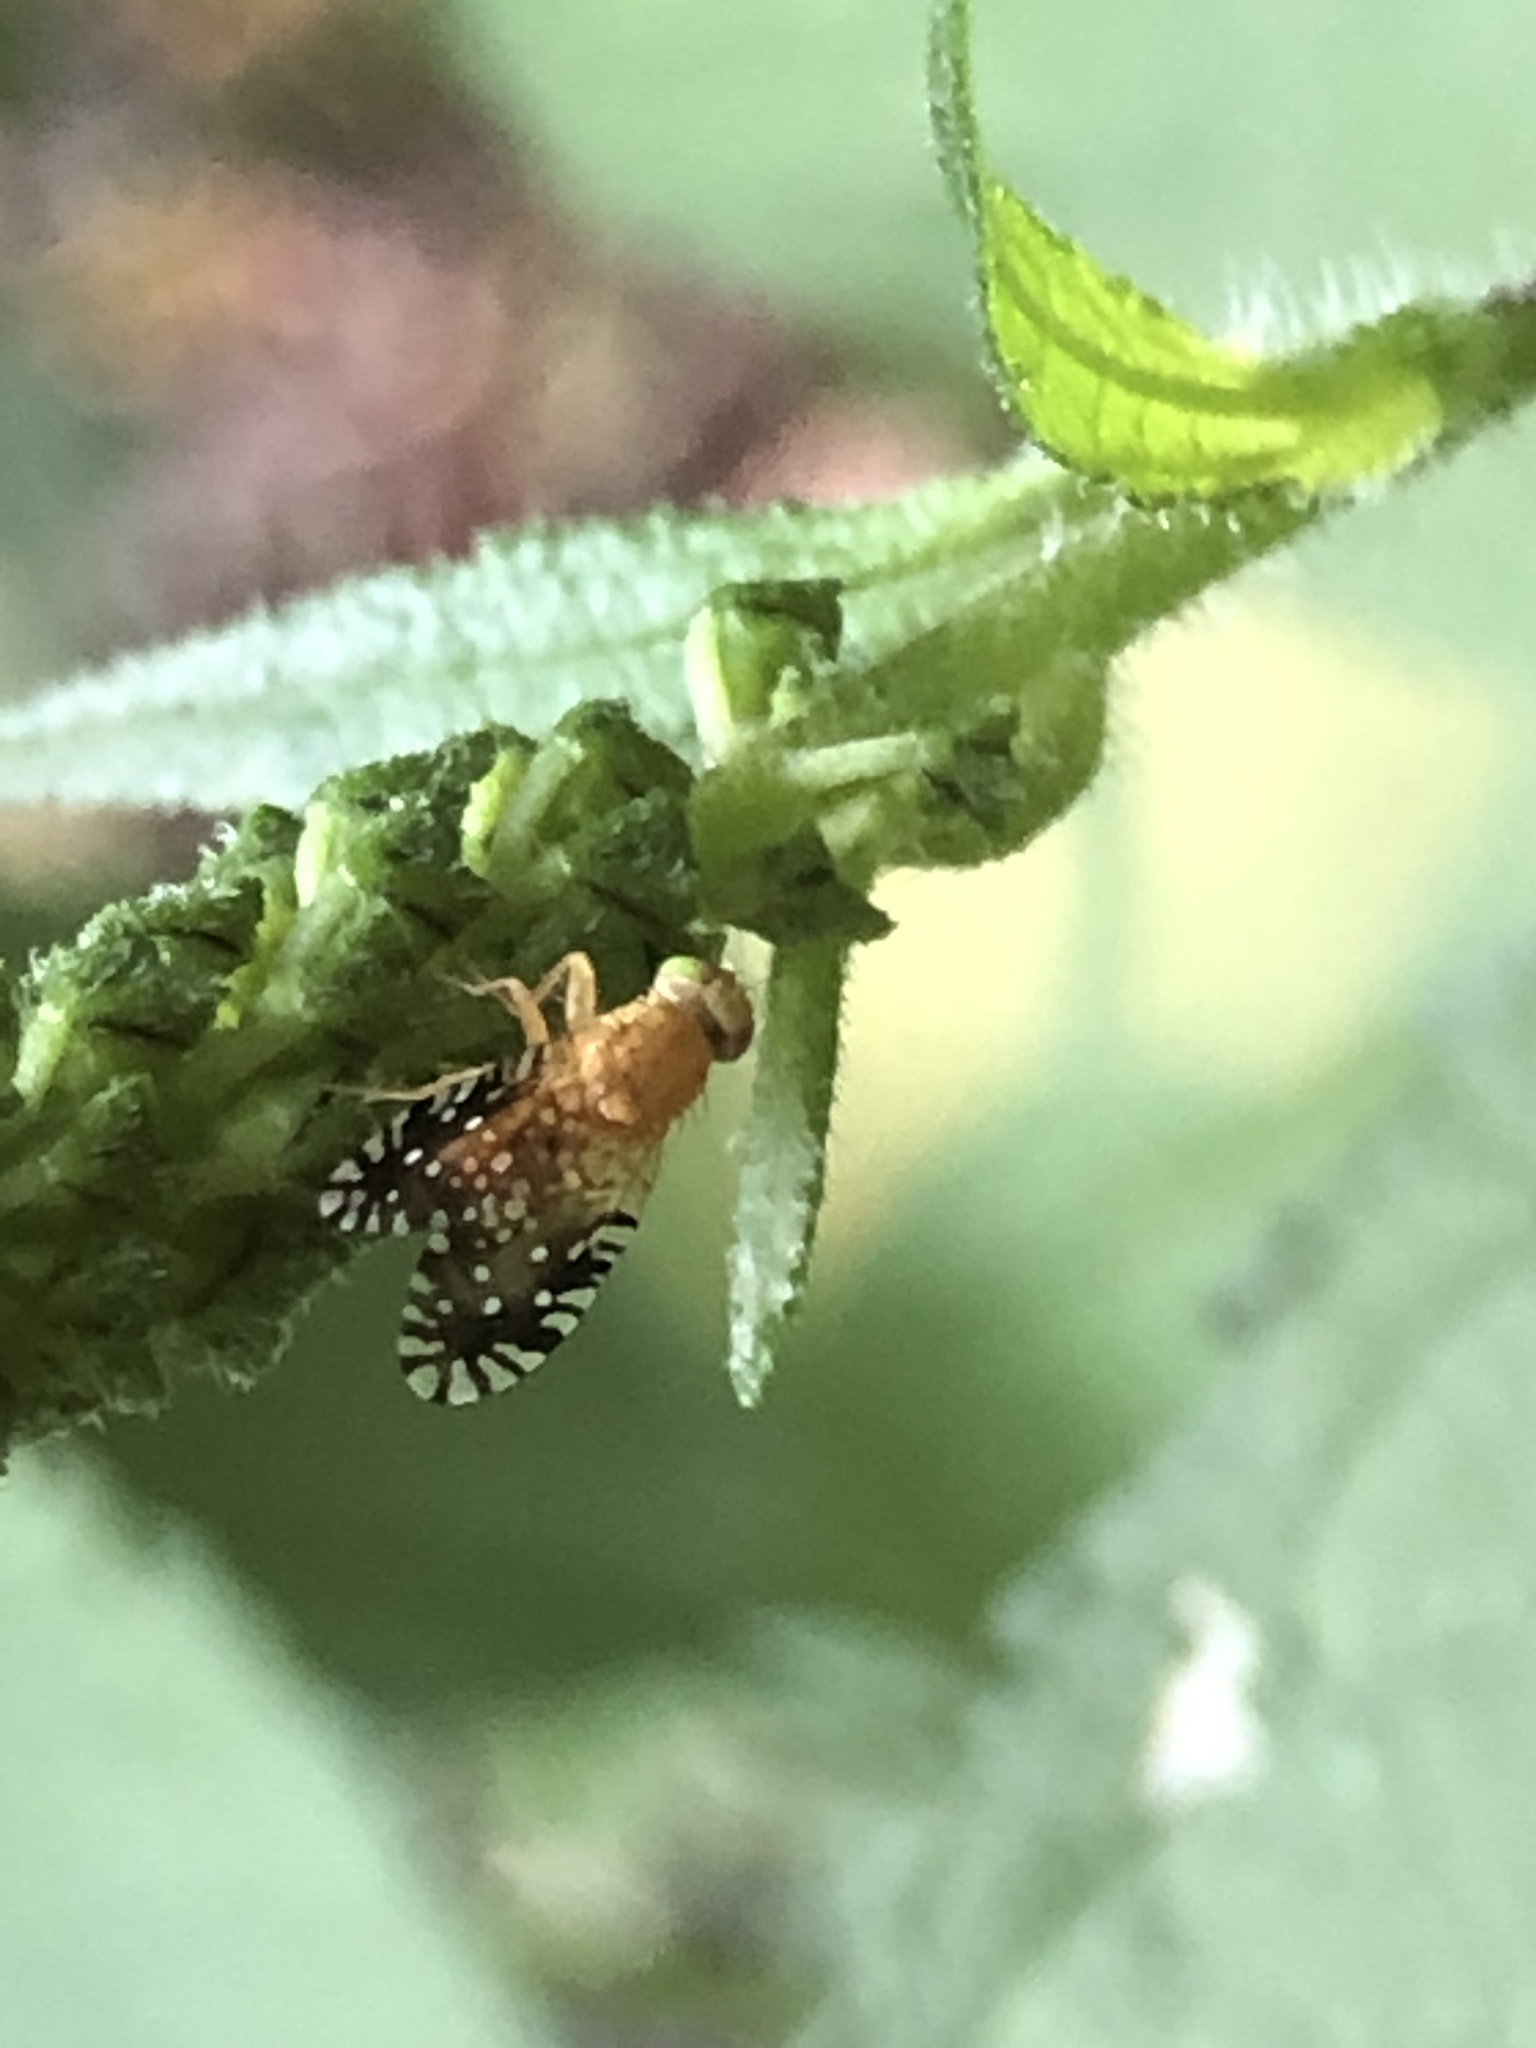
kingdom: Animalia
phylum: Arthropoda
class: Insecta
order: Diptera
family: Tephritidae
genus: Euaresta
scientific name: Euaresta festiva
